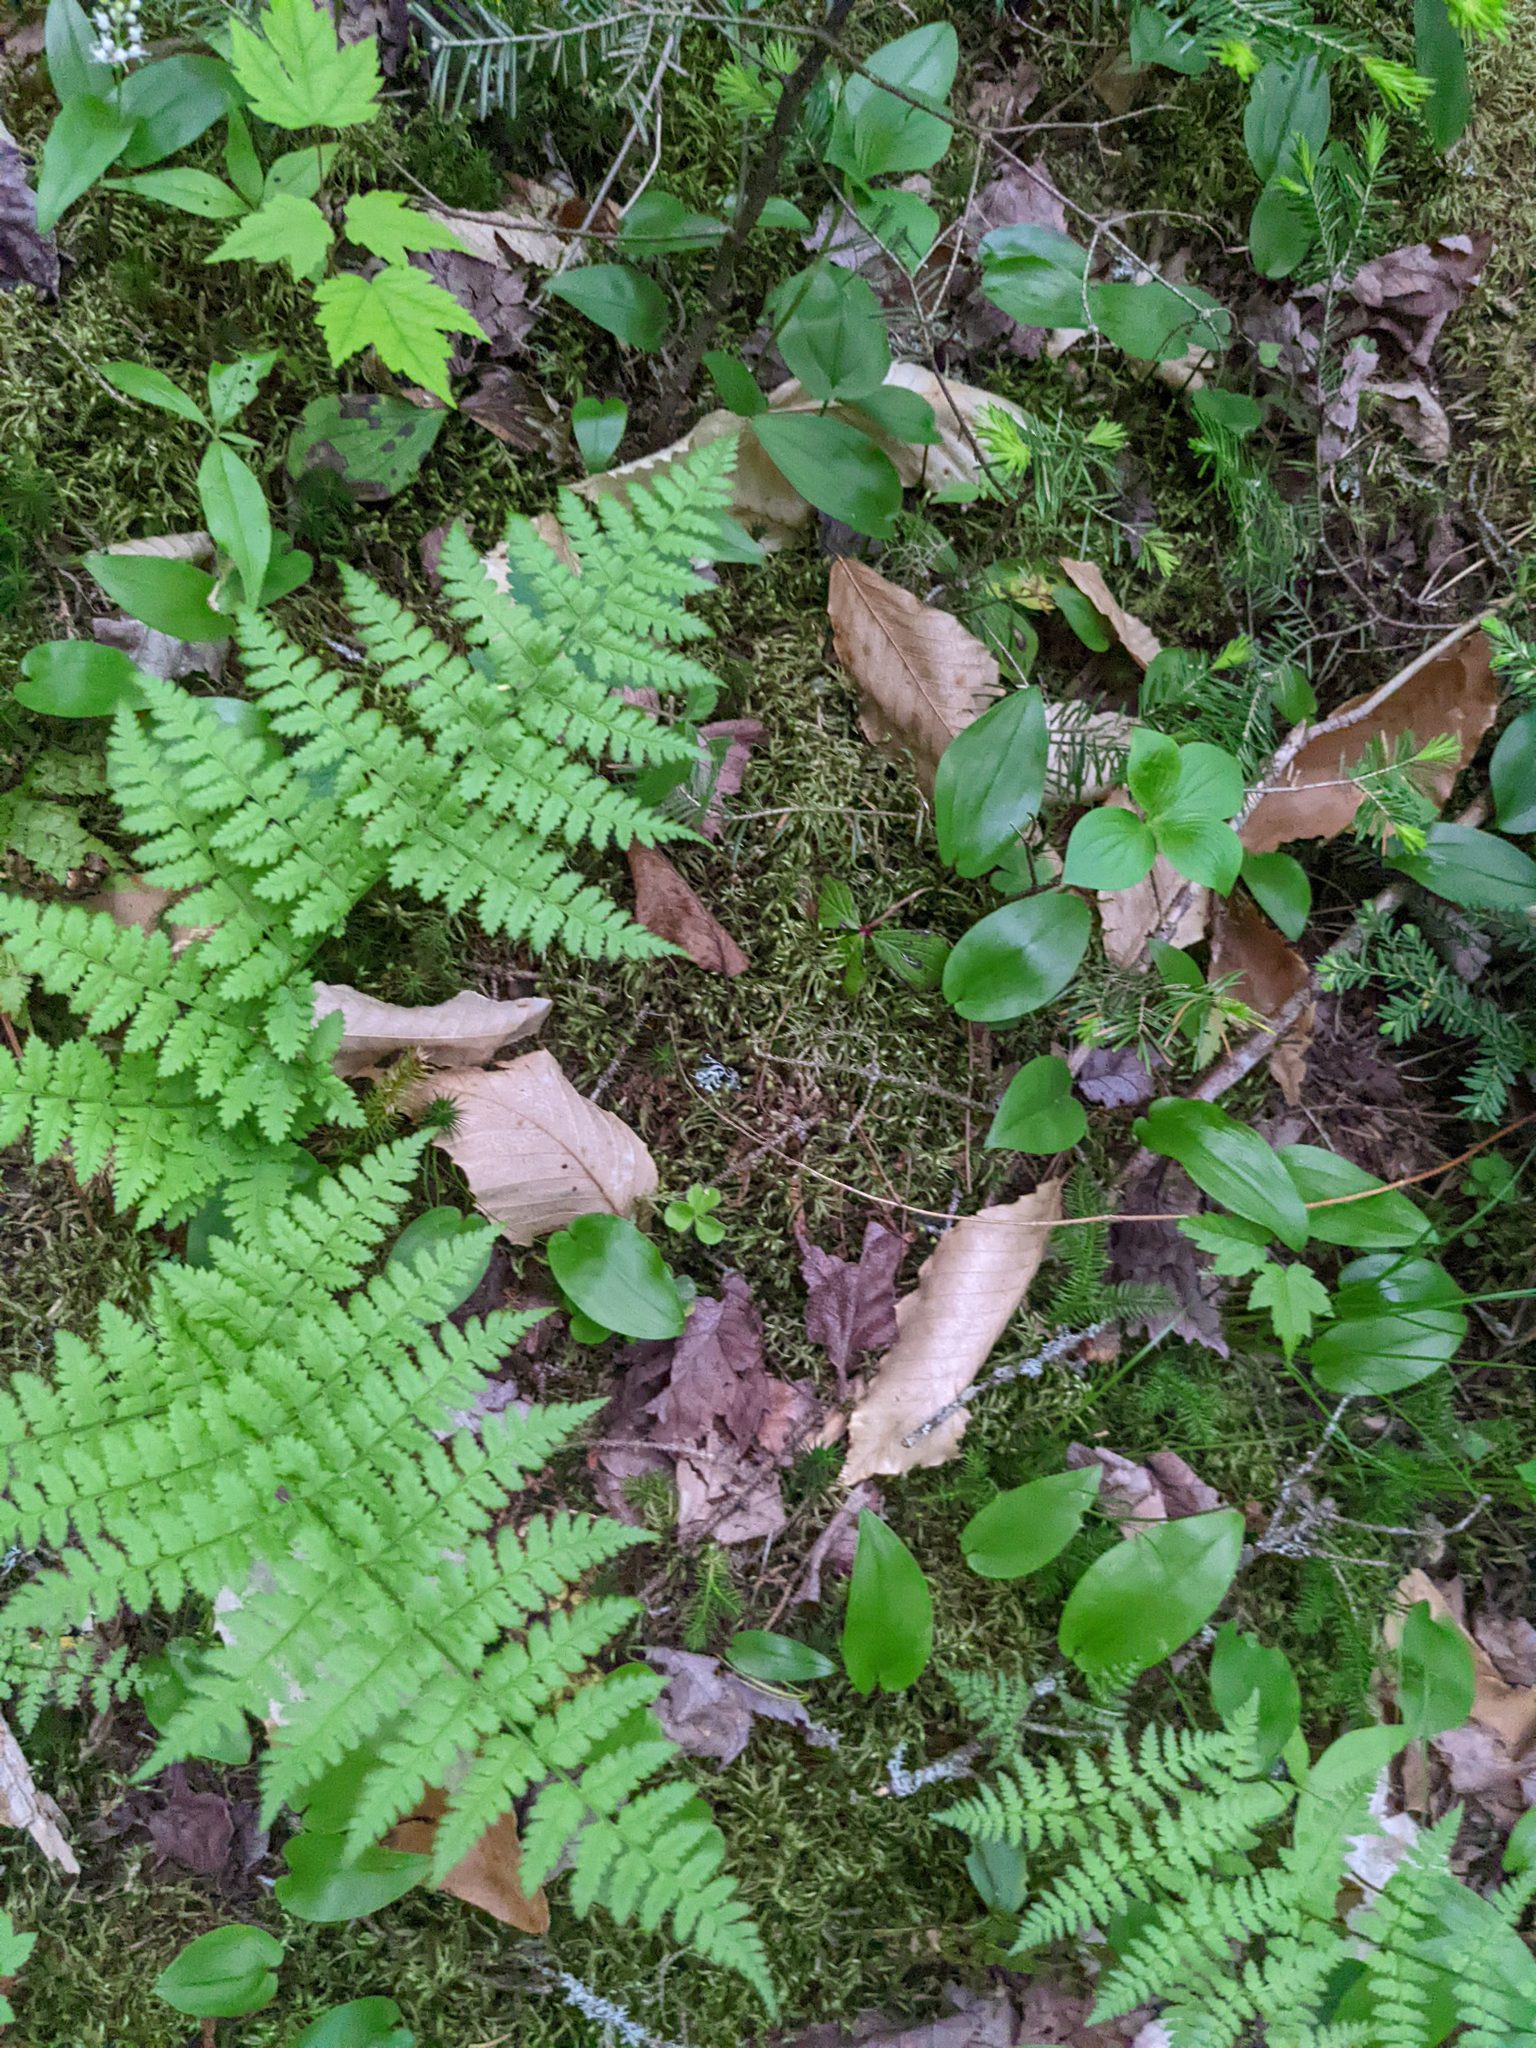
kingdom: Plantae
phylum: Tracheophyta
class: Polypodiopsida
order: Polypodiales
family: Dryopteridaceae
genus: Dryopteris
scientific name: Dryopteris intermedia
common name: Evergreen wood fern
